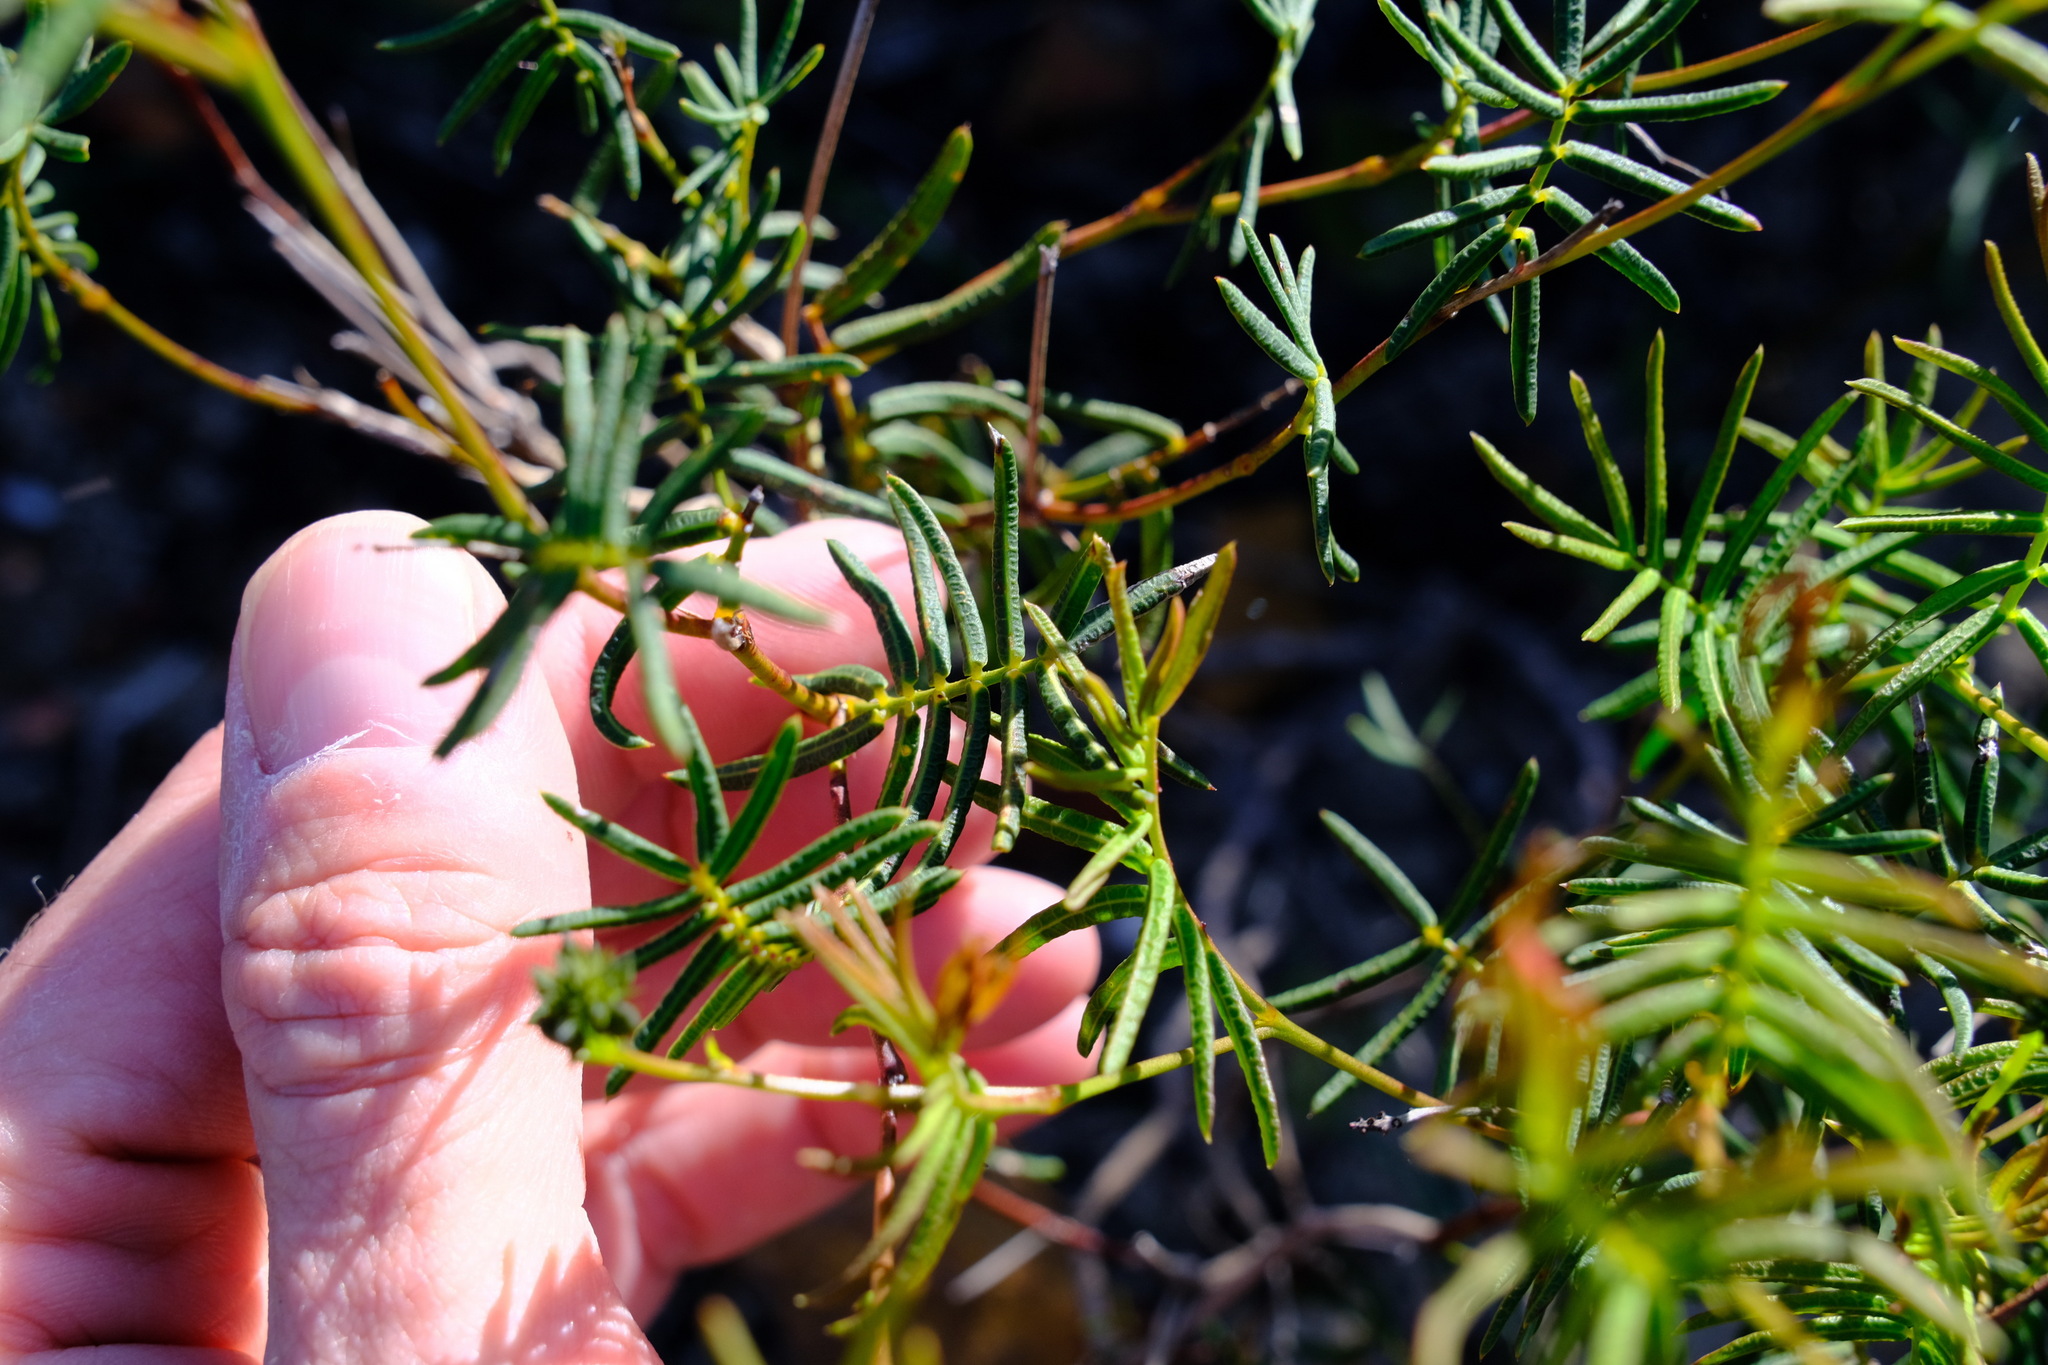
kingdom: Plantae
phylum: Tracheophyta
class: Magnoliopsida
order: Fabales
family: Fabaceae
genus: Gompholobium
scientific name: Gompholobium knightianum
